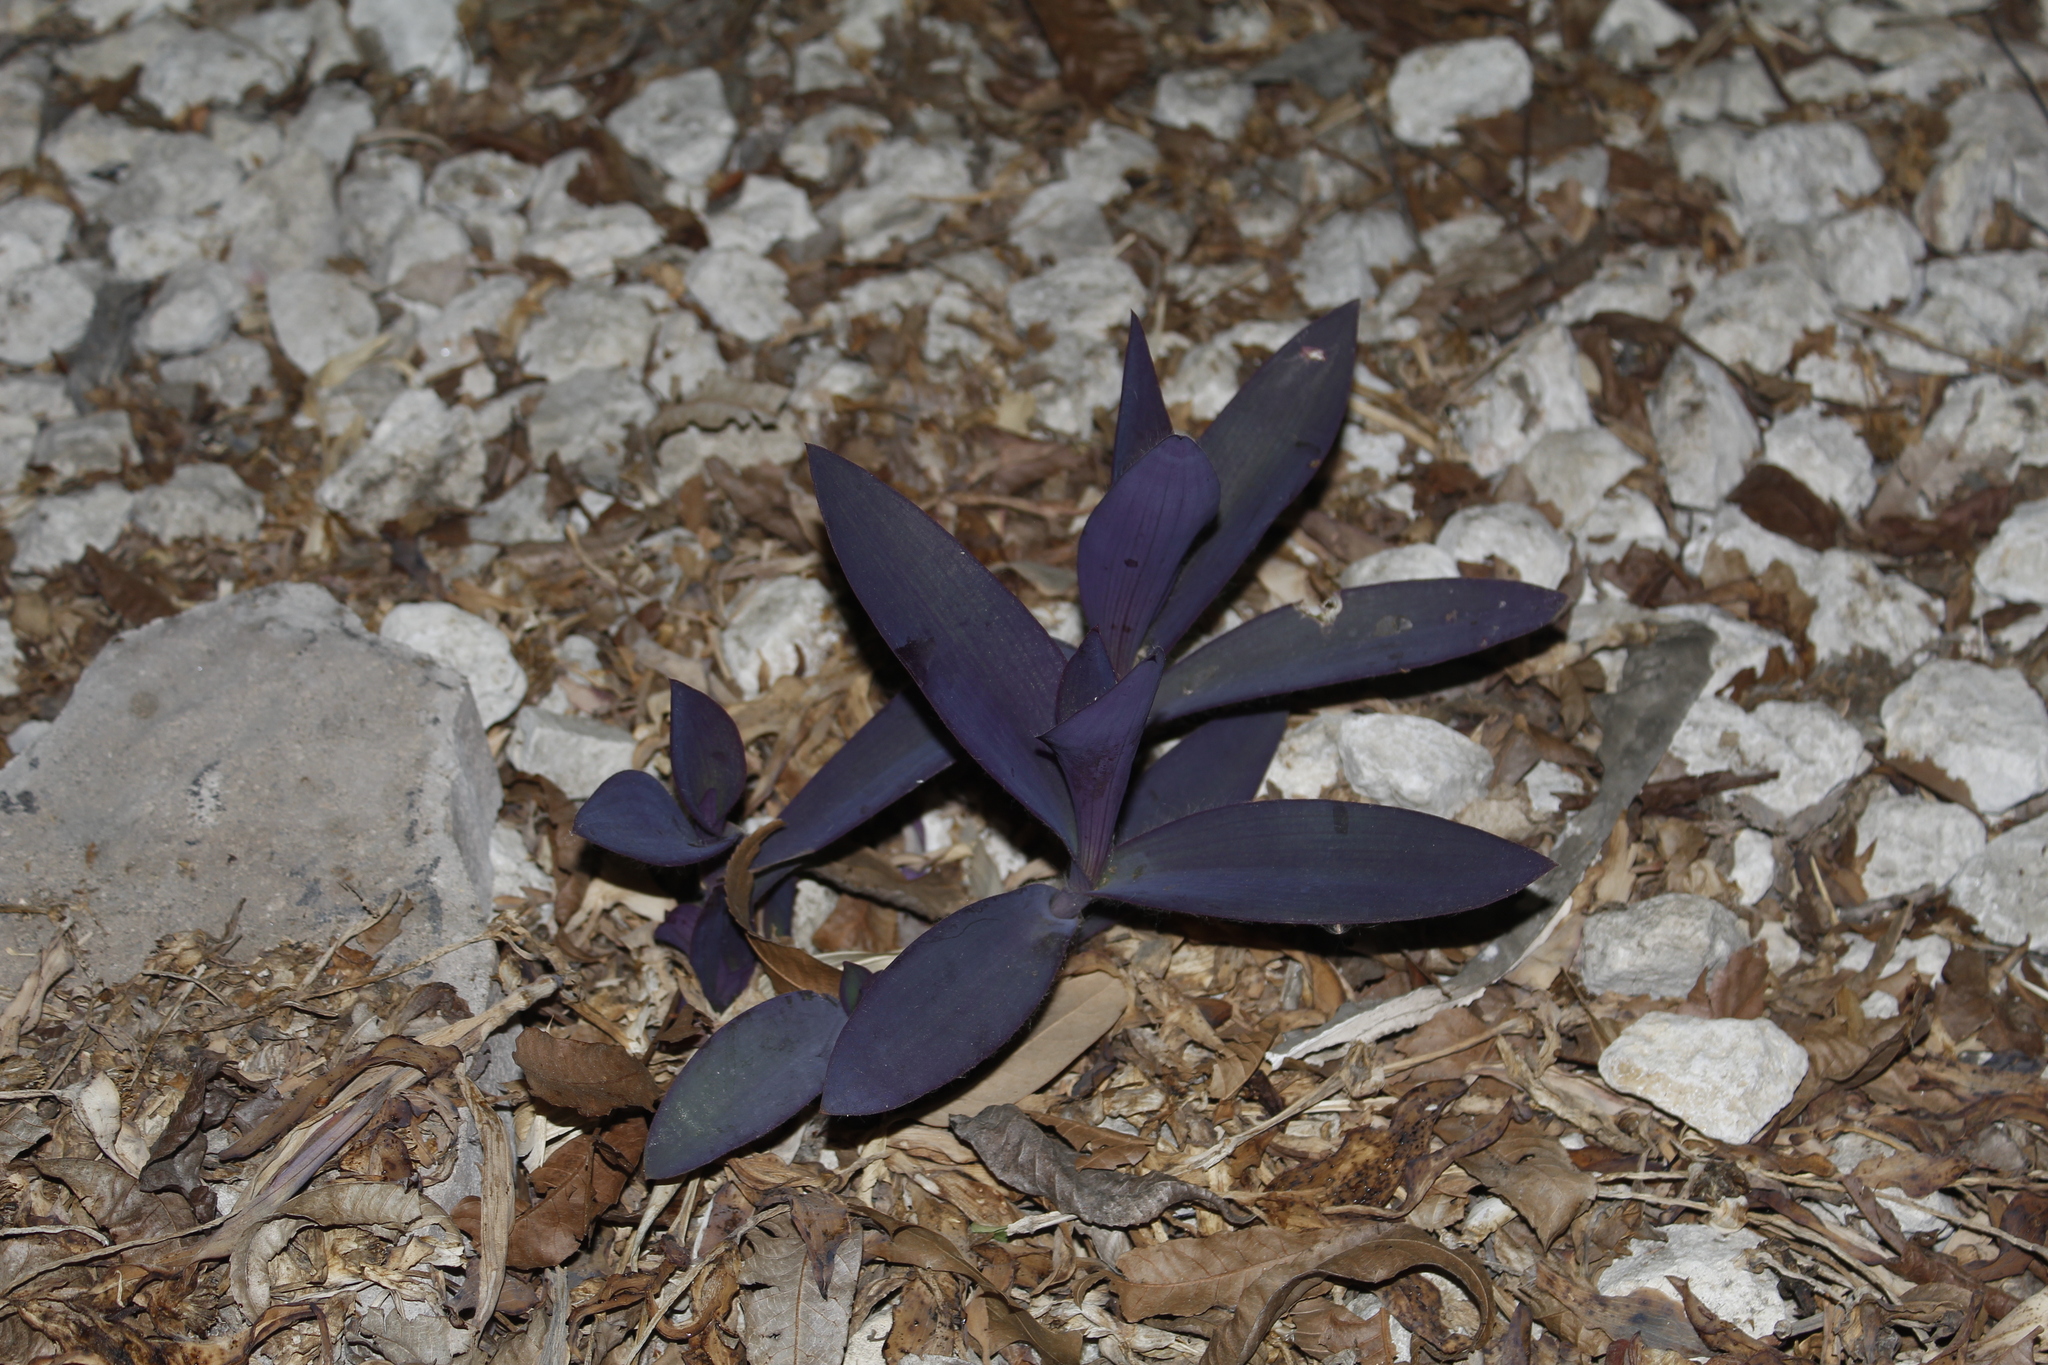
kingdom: Plantae
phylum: Tracheophyta
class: Liliopsida
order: Commelinales
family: Commelinaceae
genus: Tradescantia
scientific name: Tradescantia pallida
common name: Purpleheart
